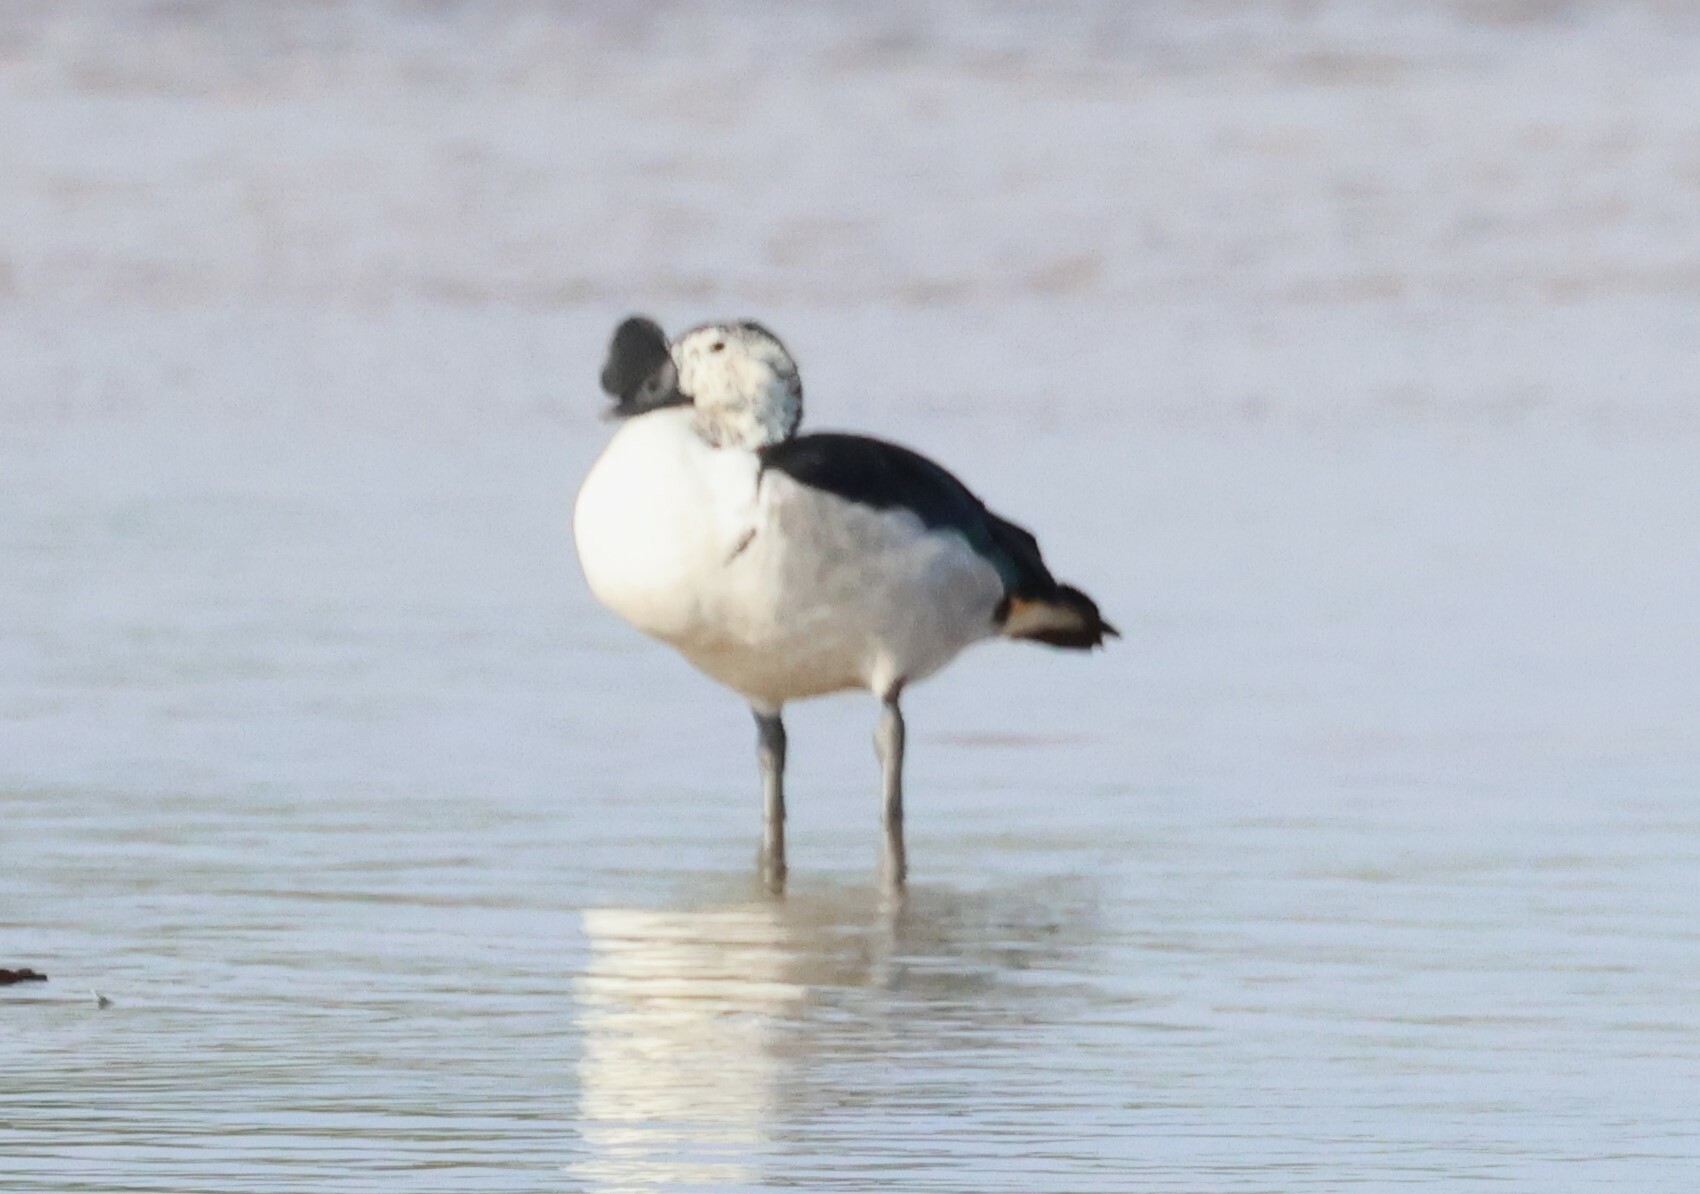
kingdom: Animalia
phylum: Chordata
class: Aves
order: Anseriformes
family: Anatidae
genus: Sarkidiornis
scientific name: Sarkidiornis melanotos
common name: Comb duck
